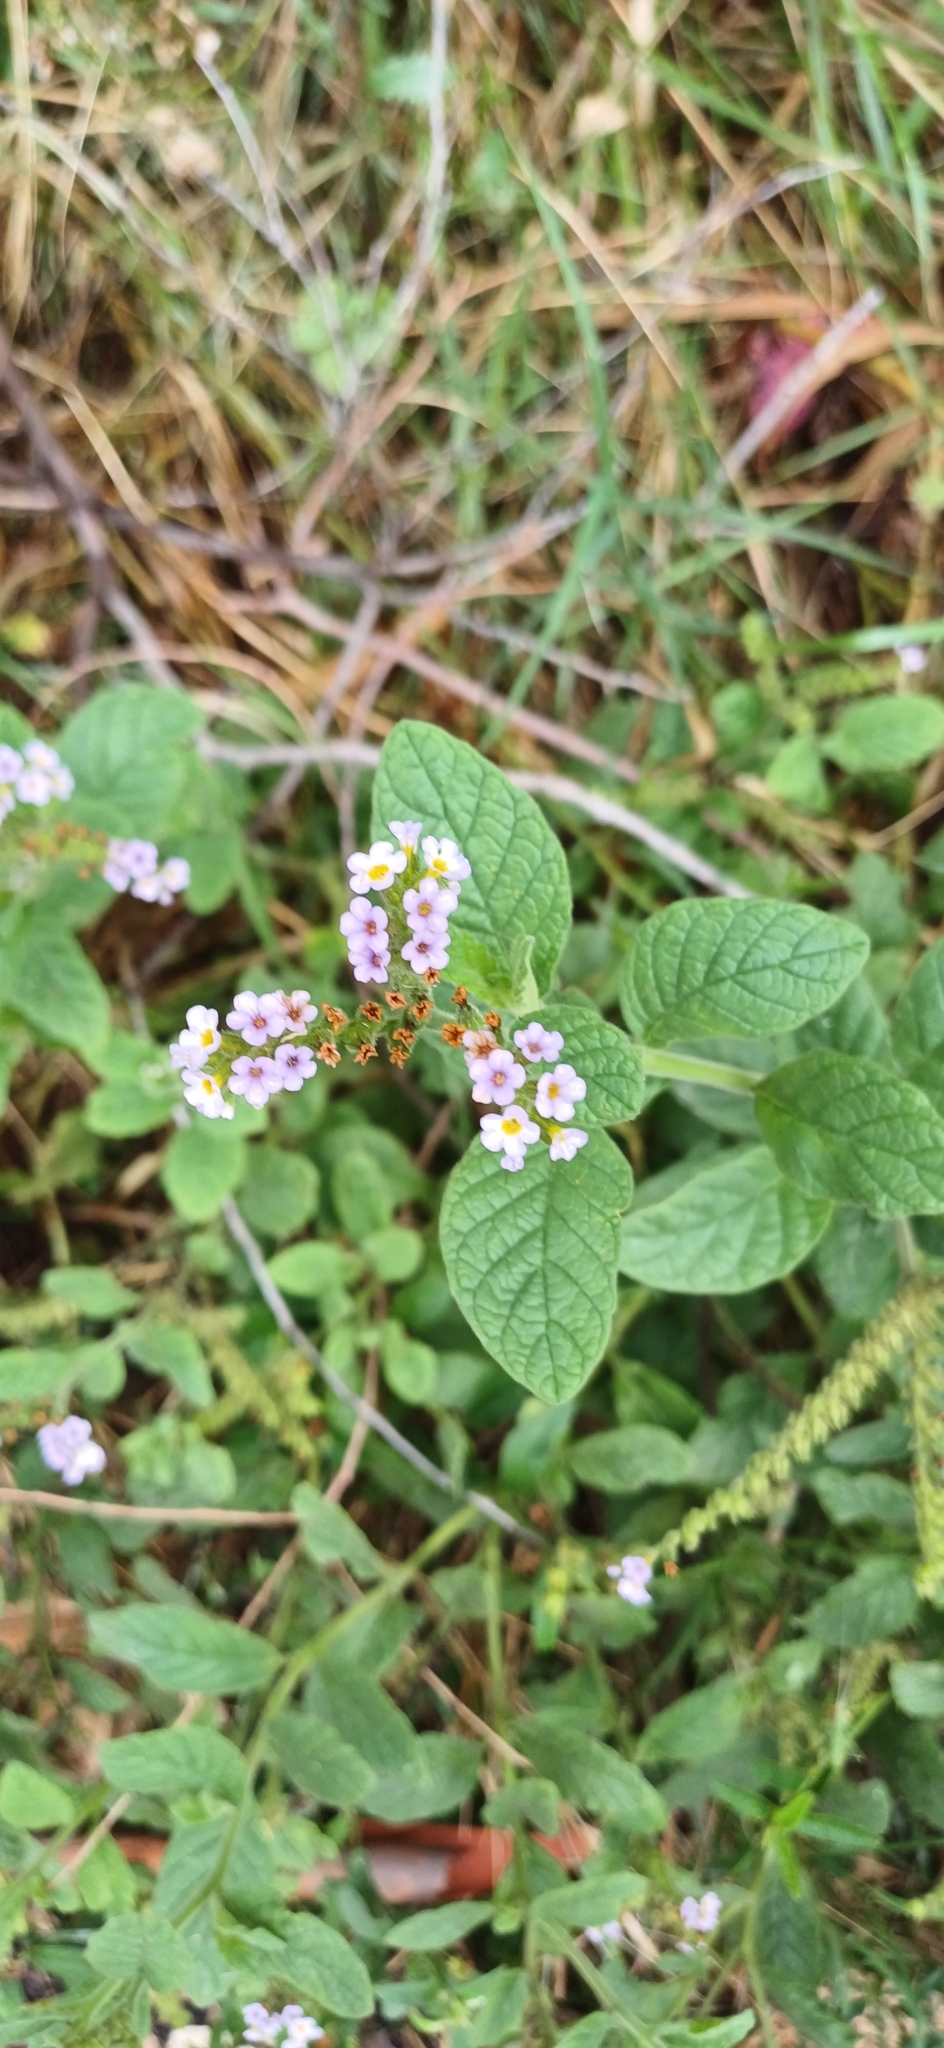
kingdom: Plantae
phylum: Tracheophyta
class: Magnoliopsida
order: Boraginales
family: Heliotropiaceae
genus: Heliotropium
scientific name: Heliotropium leiocarpum
